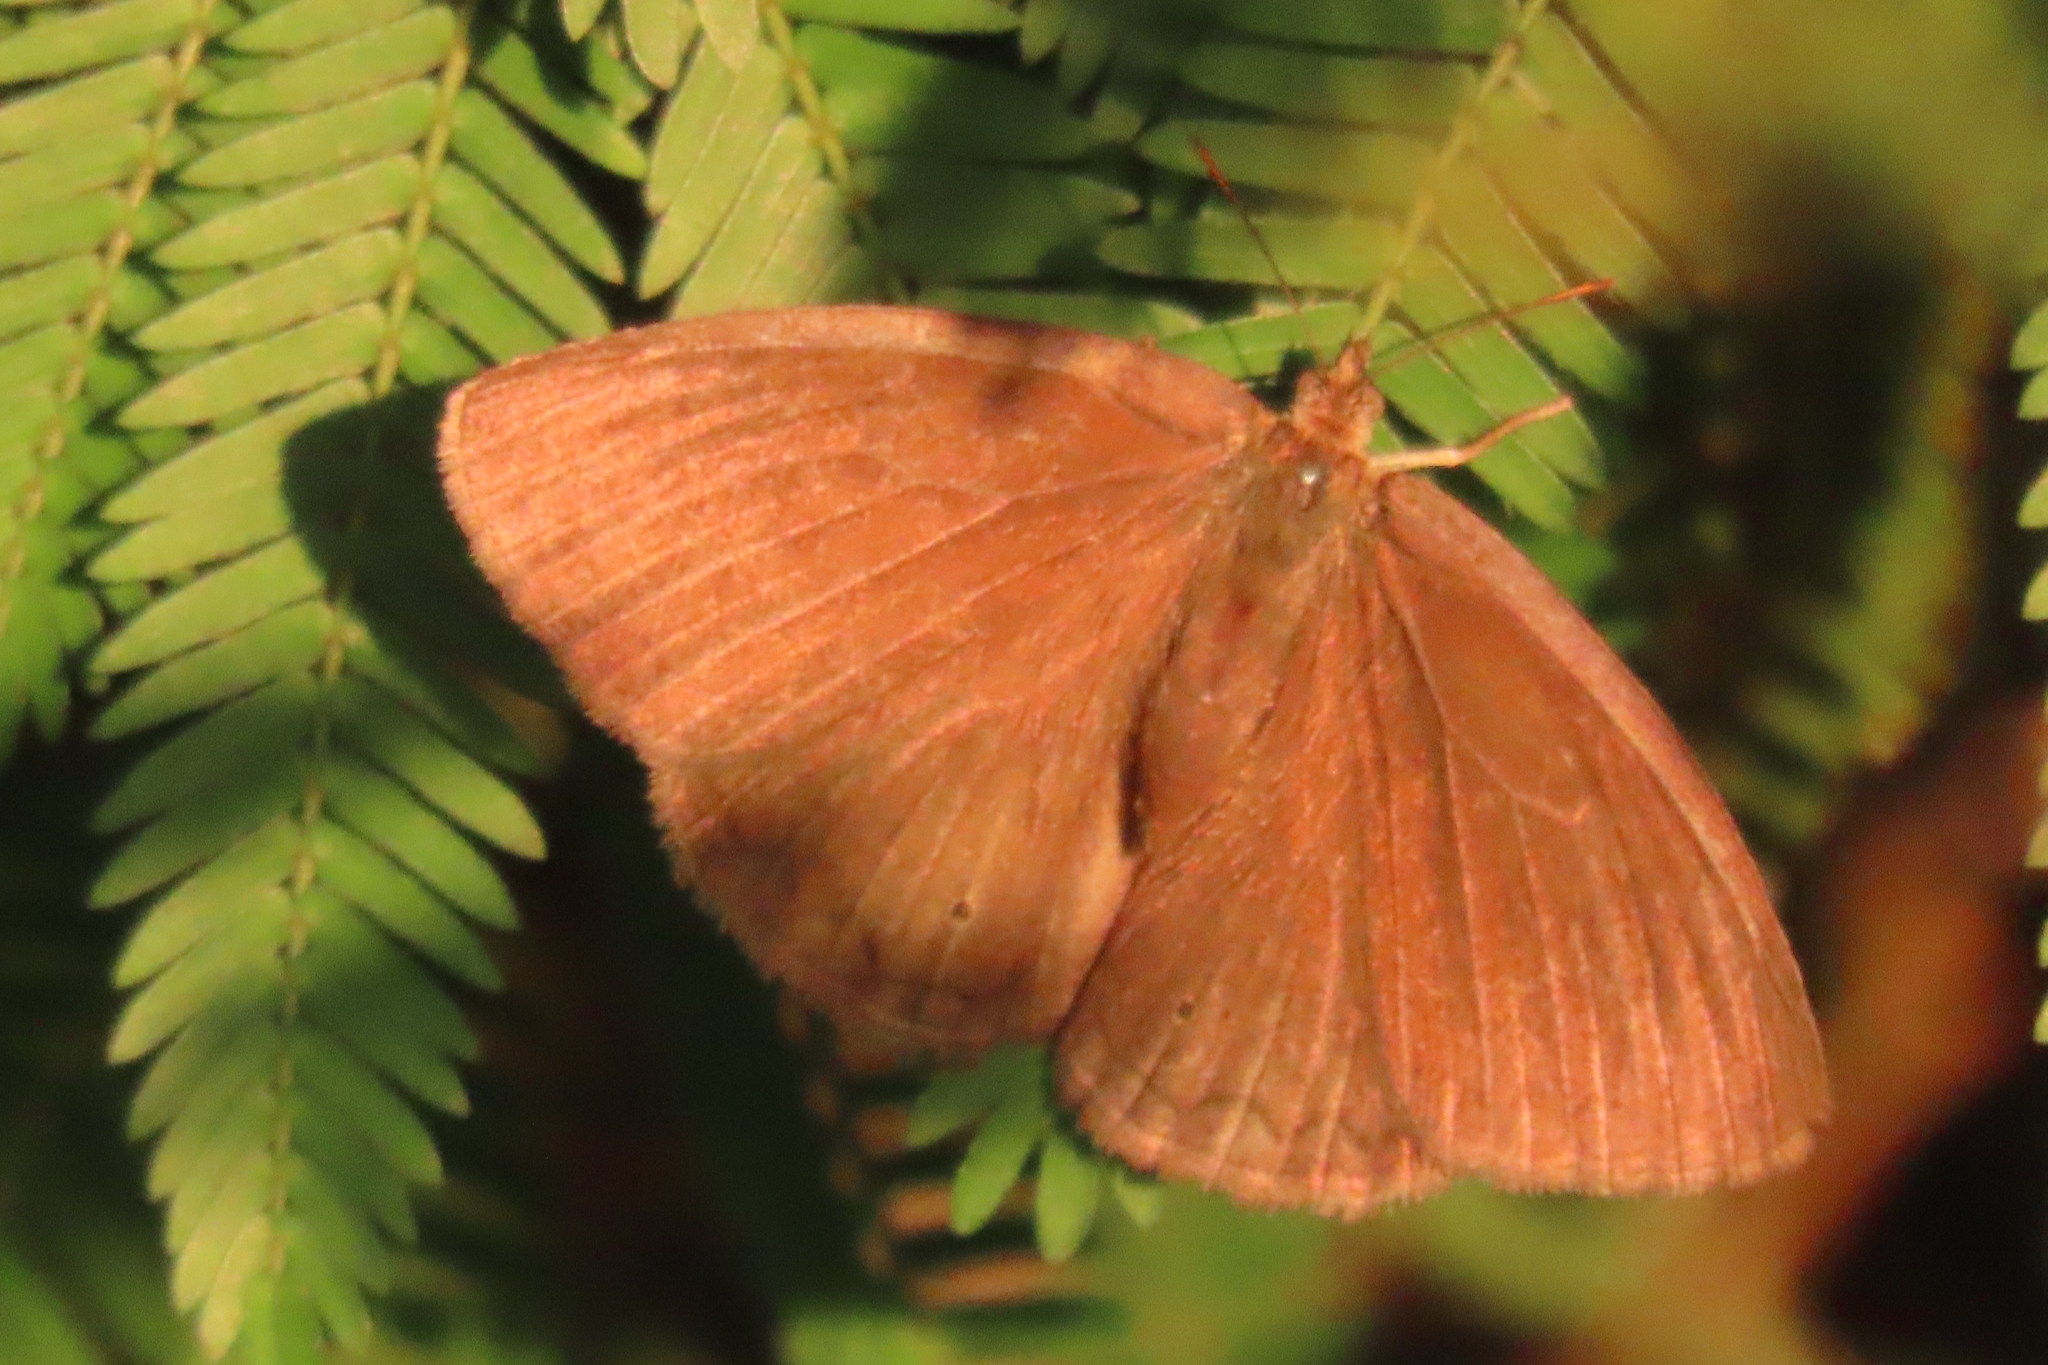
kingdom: Animalia
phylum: Arthropoda
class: Insecta
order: Lepidoptera
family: Nymphalidae
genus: Yphthimoides
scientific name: Yphthimoides celmis
